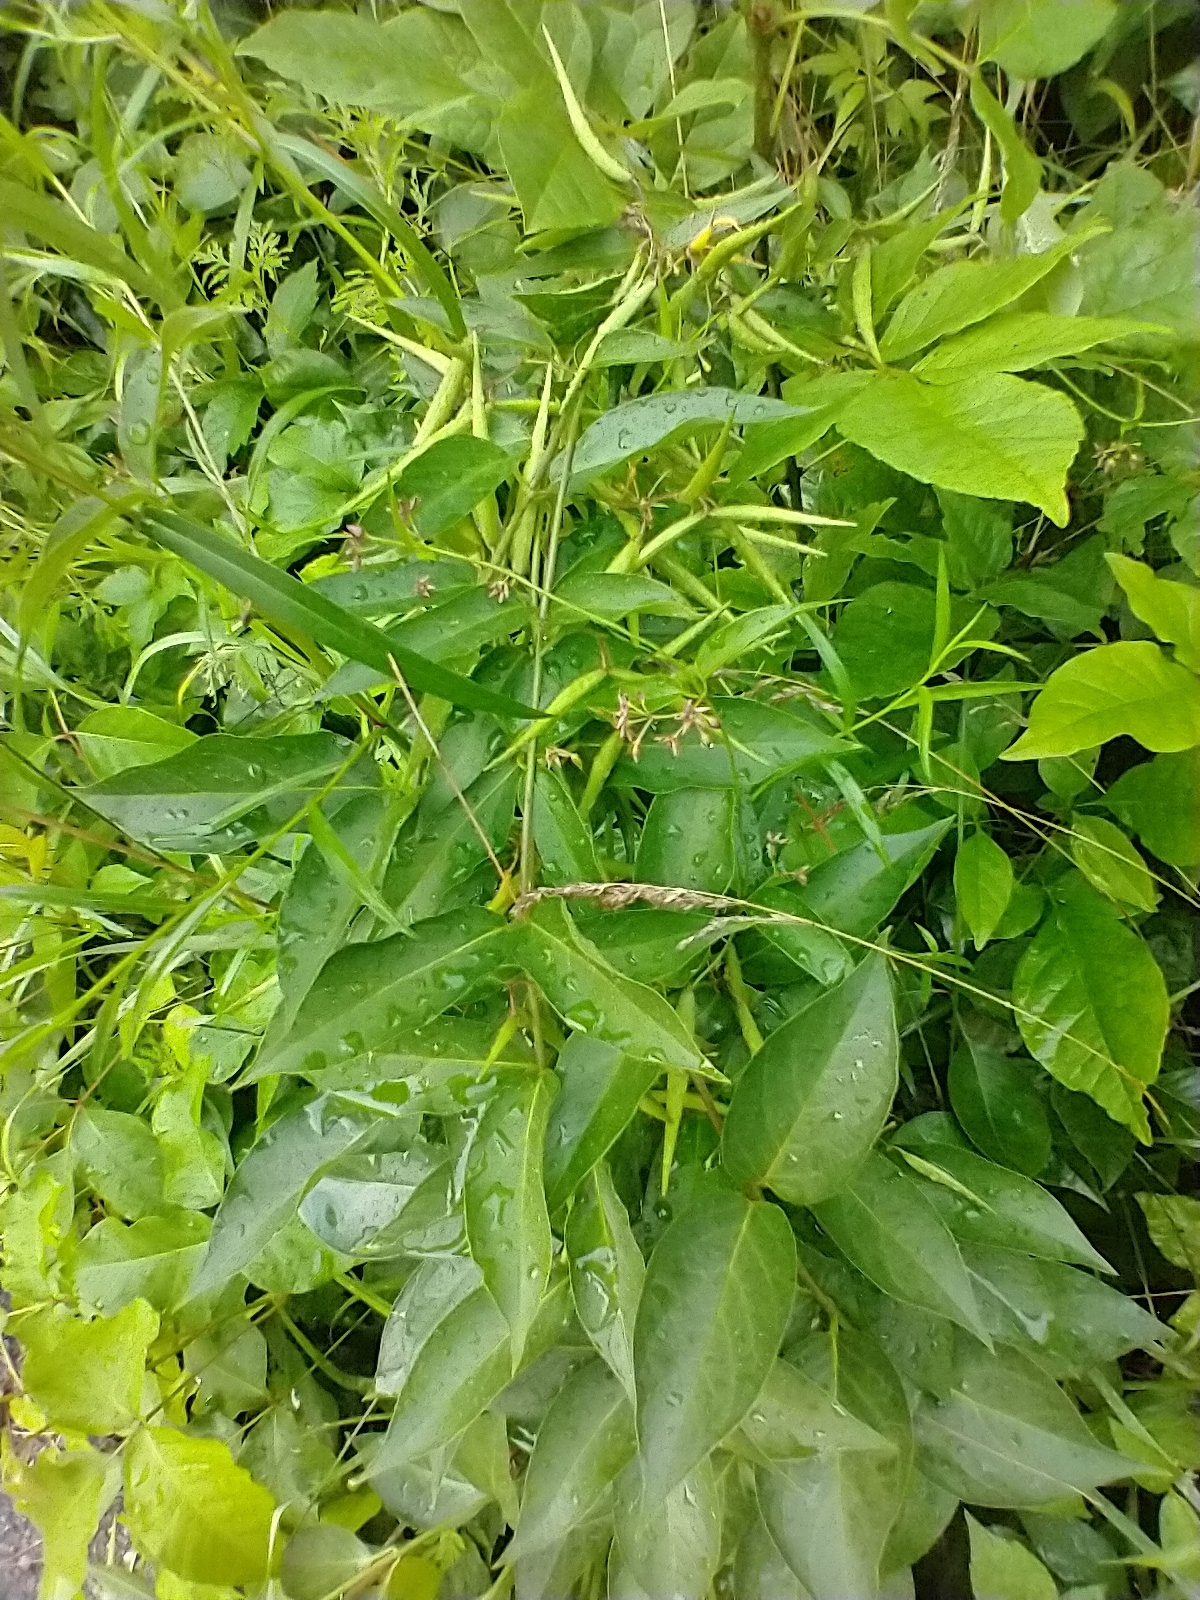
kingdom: Plantae
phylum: Tracheophyta
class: Magnoliopsida
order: Gentianales
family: Apocynaceae
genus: Vincetoxicum
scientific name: Vincetoxicum rossicum
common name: Dog-strangling vine
